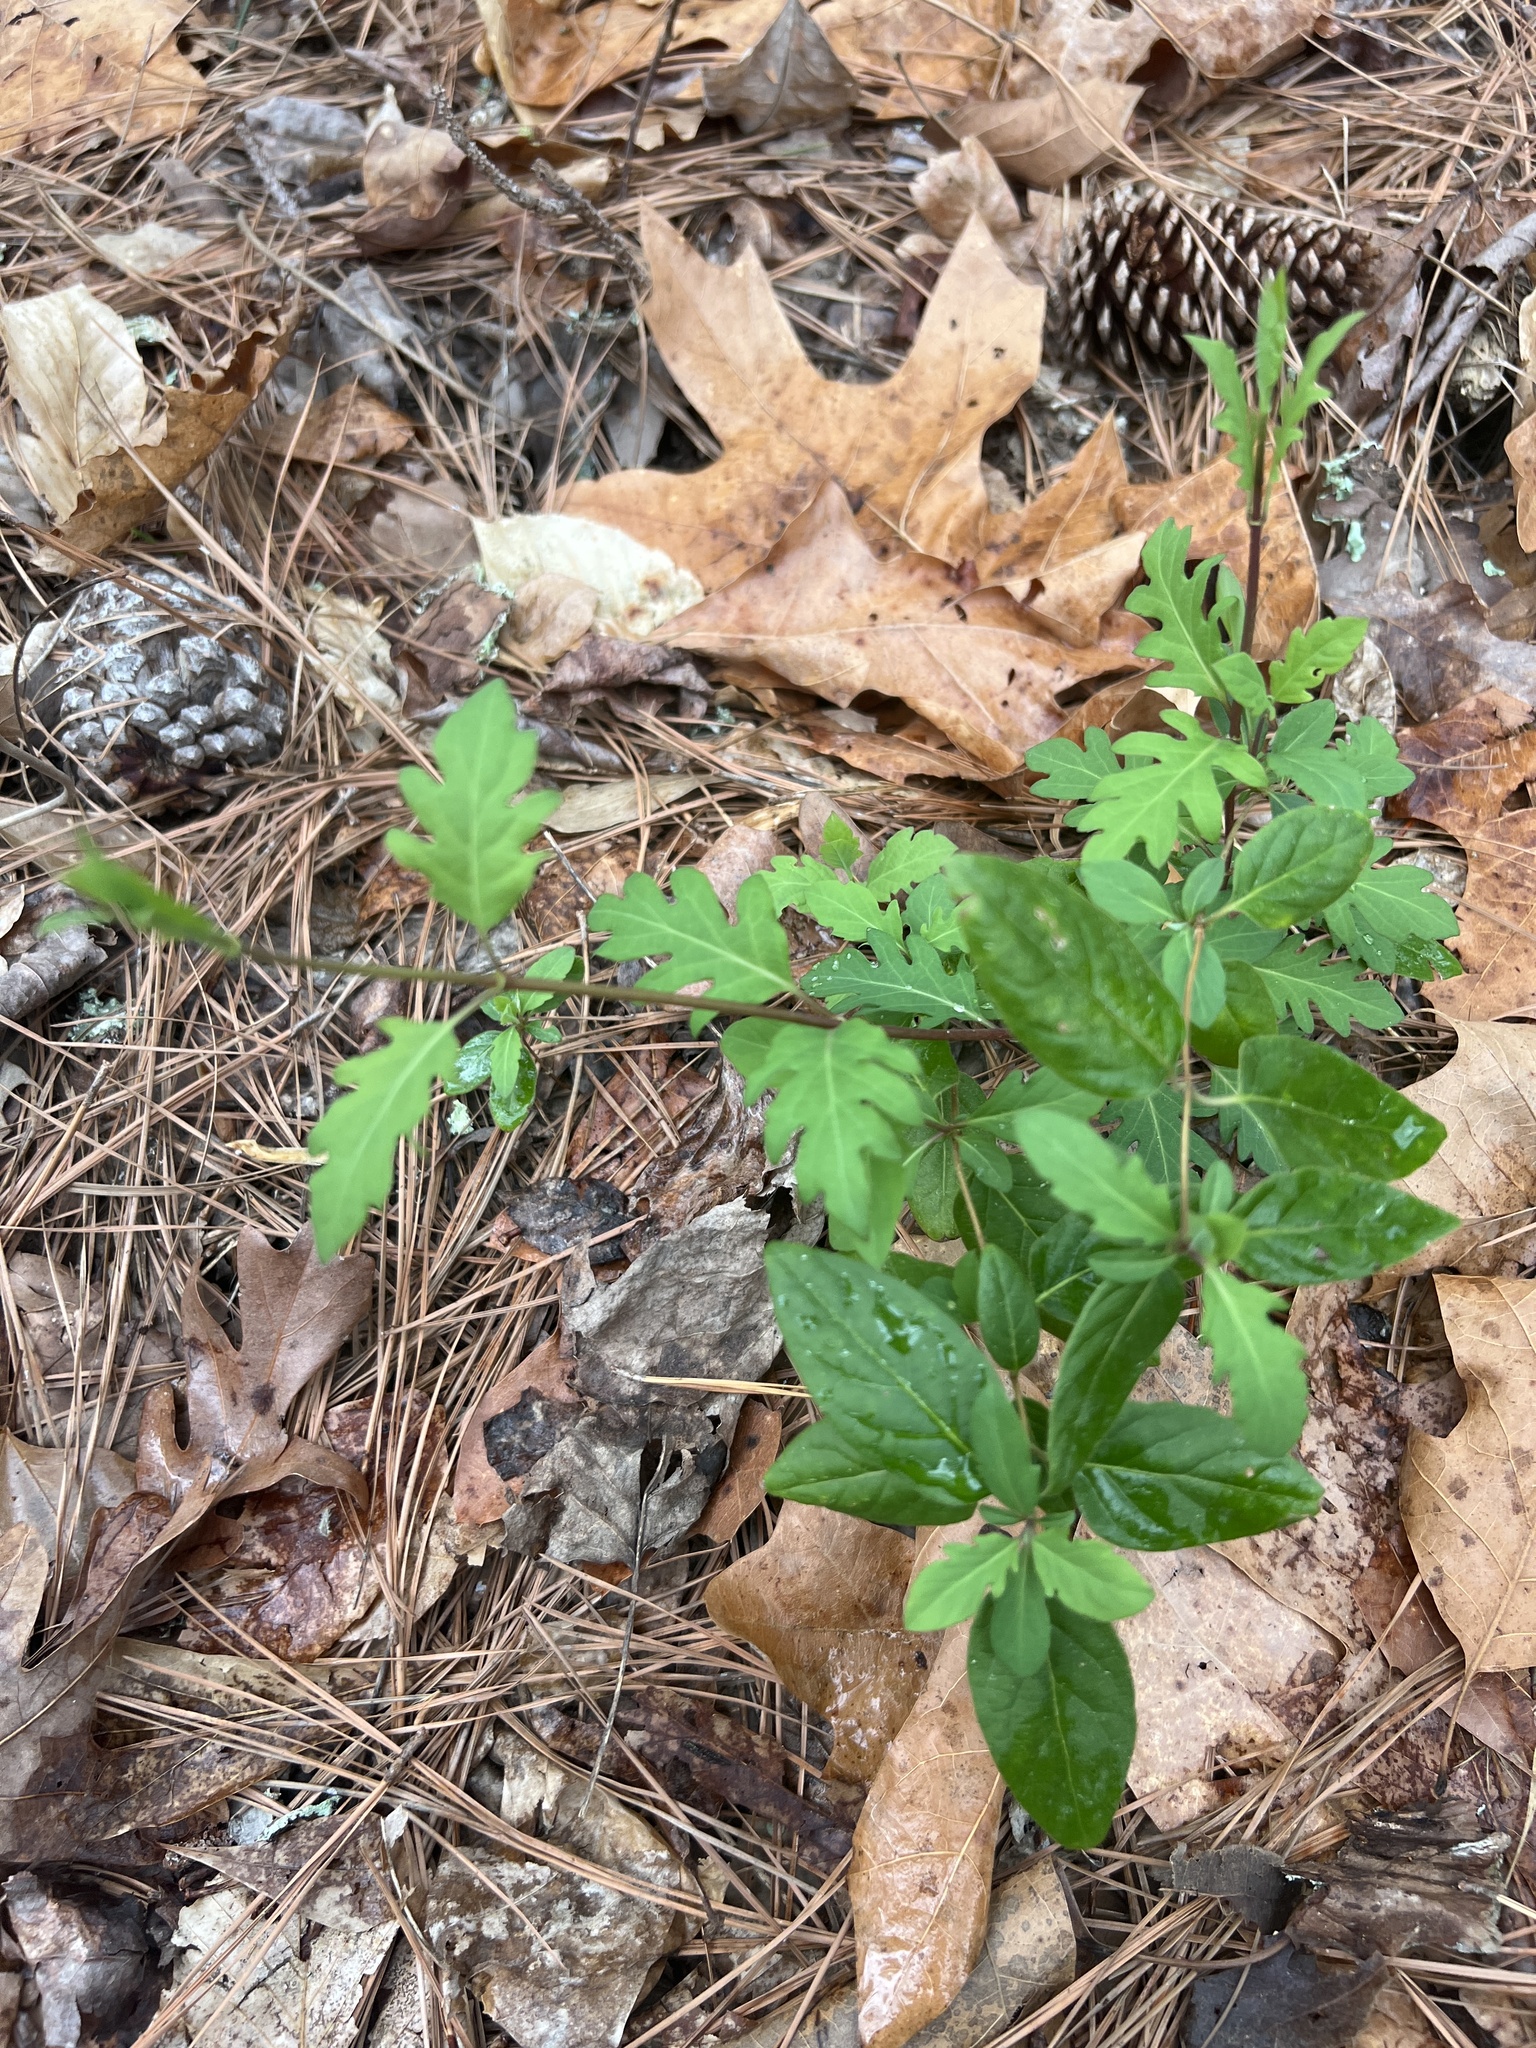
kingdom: Plantae
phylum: Tracheophyta
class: Magnoliopsida
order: Dipsacales
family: Caprifoliaceae
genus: Lonicera
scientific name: Lonicera japonica
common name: Japanese honeysuckle
